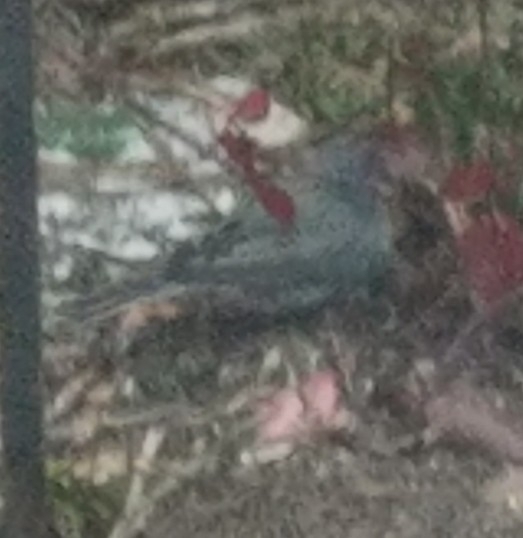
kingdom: Animalia
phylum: Chordata
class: Aves
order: Passeriformes
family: Passerellidae
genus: Junco
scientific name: Junco hyemalis
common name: Dark-eyed junco
